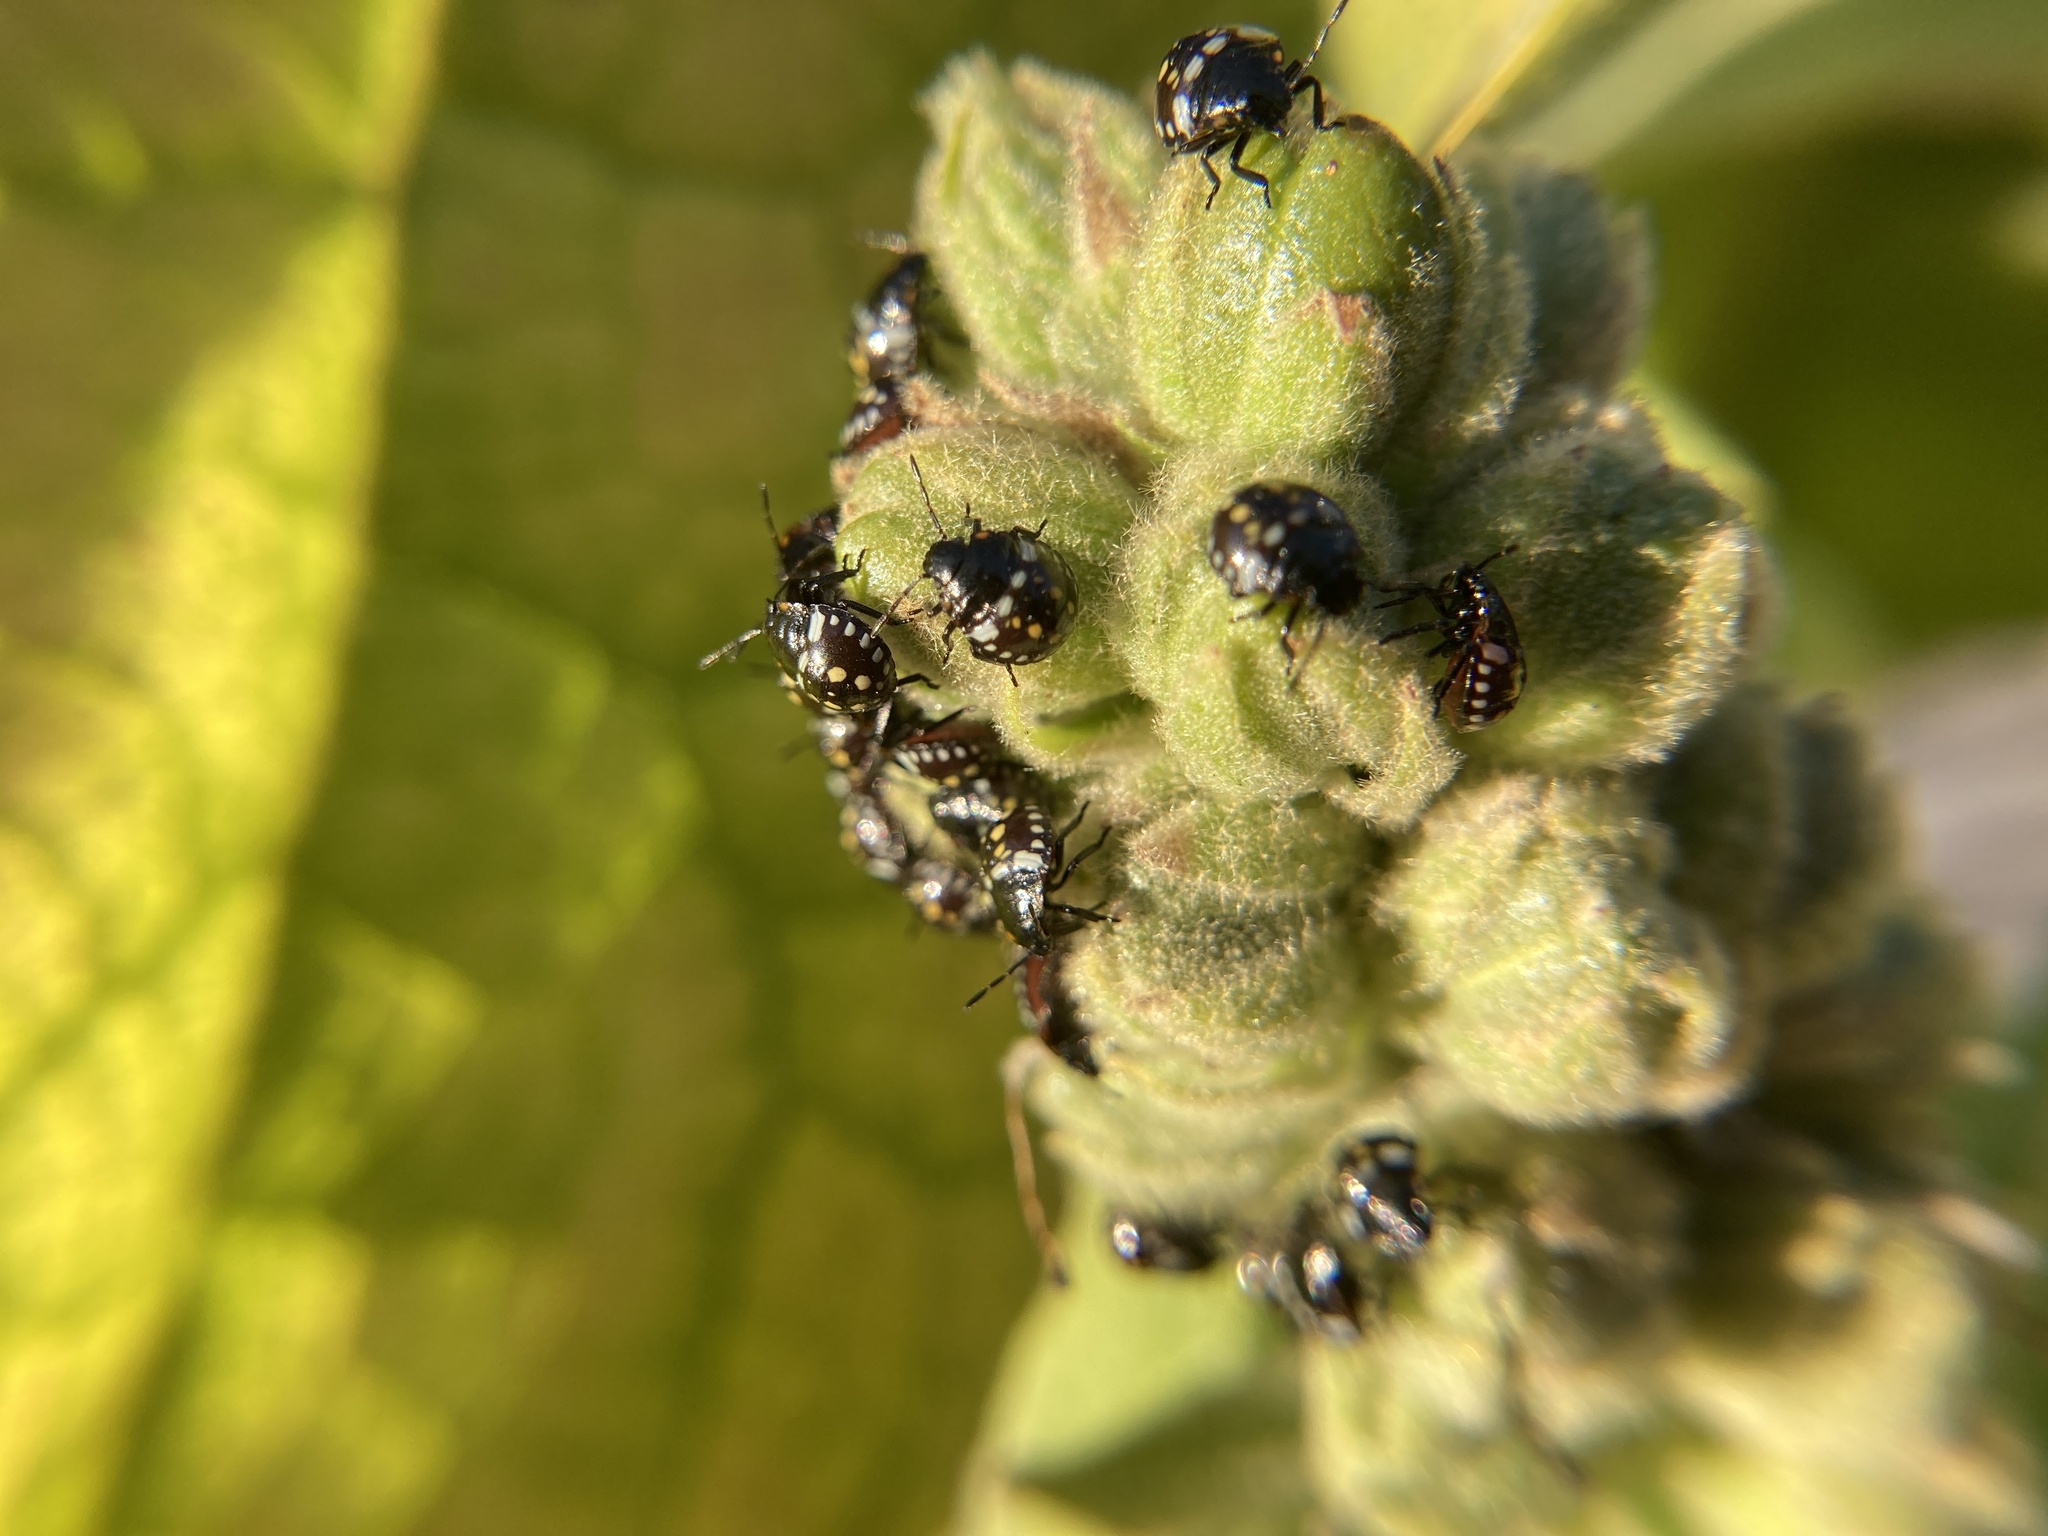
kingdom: Animalia
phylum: Arthropoda
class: Insecta
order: Hemiptera
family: Pentatomidae
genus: Nezara
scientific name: Nezara viridula
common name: Southern green stink bug
